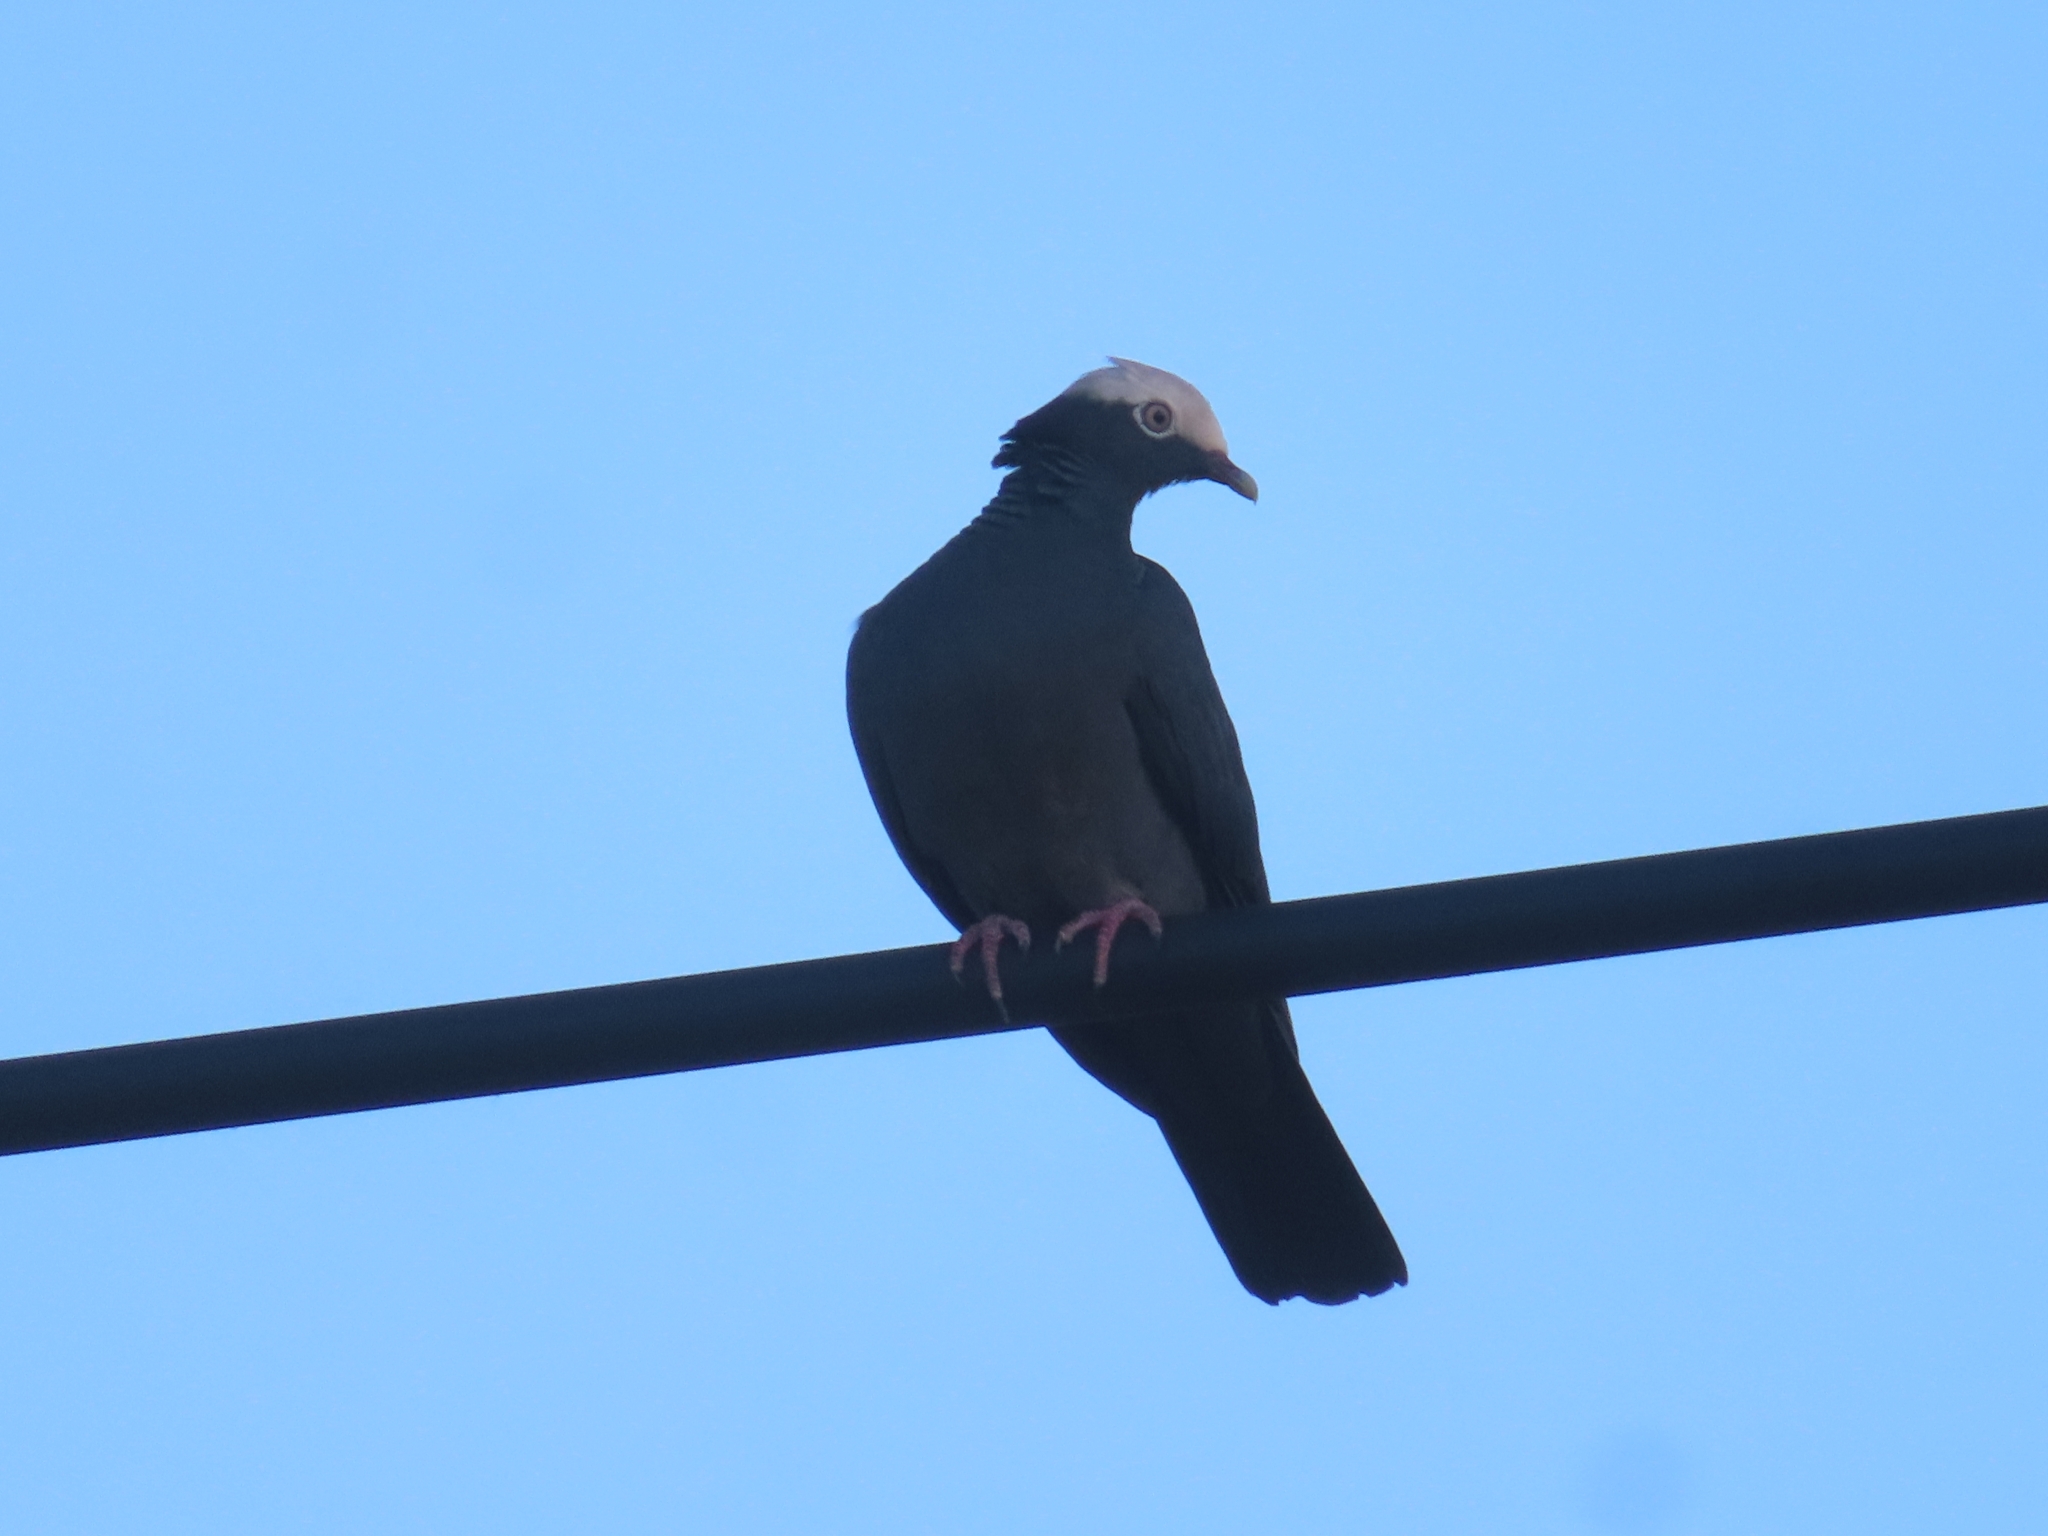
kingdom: Animalia
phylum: Chordata
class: Aves
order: Columbiformes
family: Columbidae
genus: Patagioenas
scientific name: Patagioenas leucocephala
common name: White-crowned pigeon
